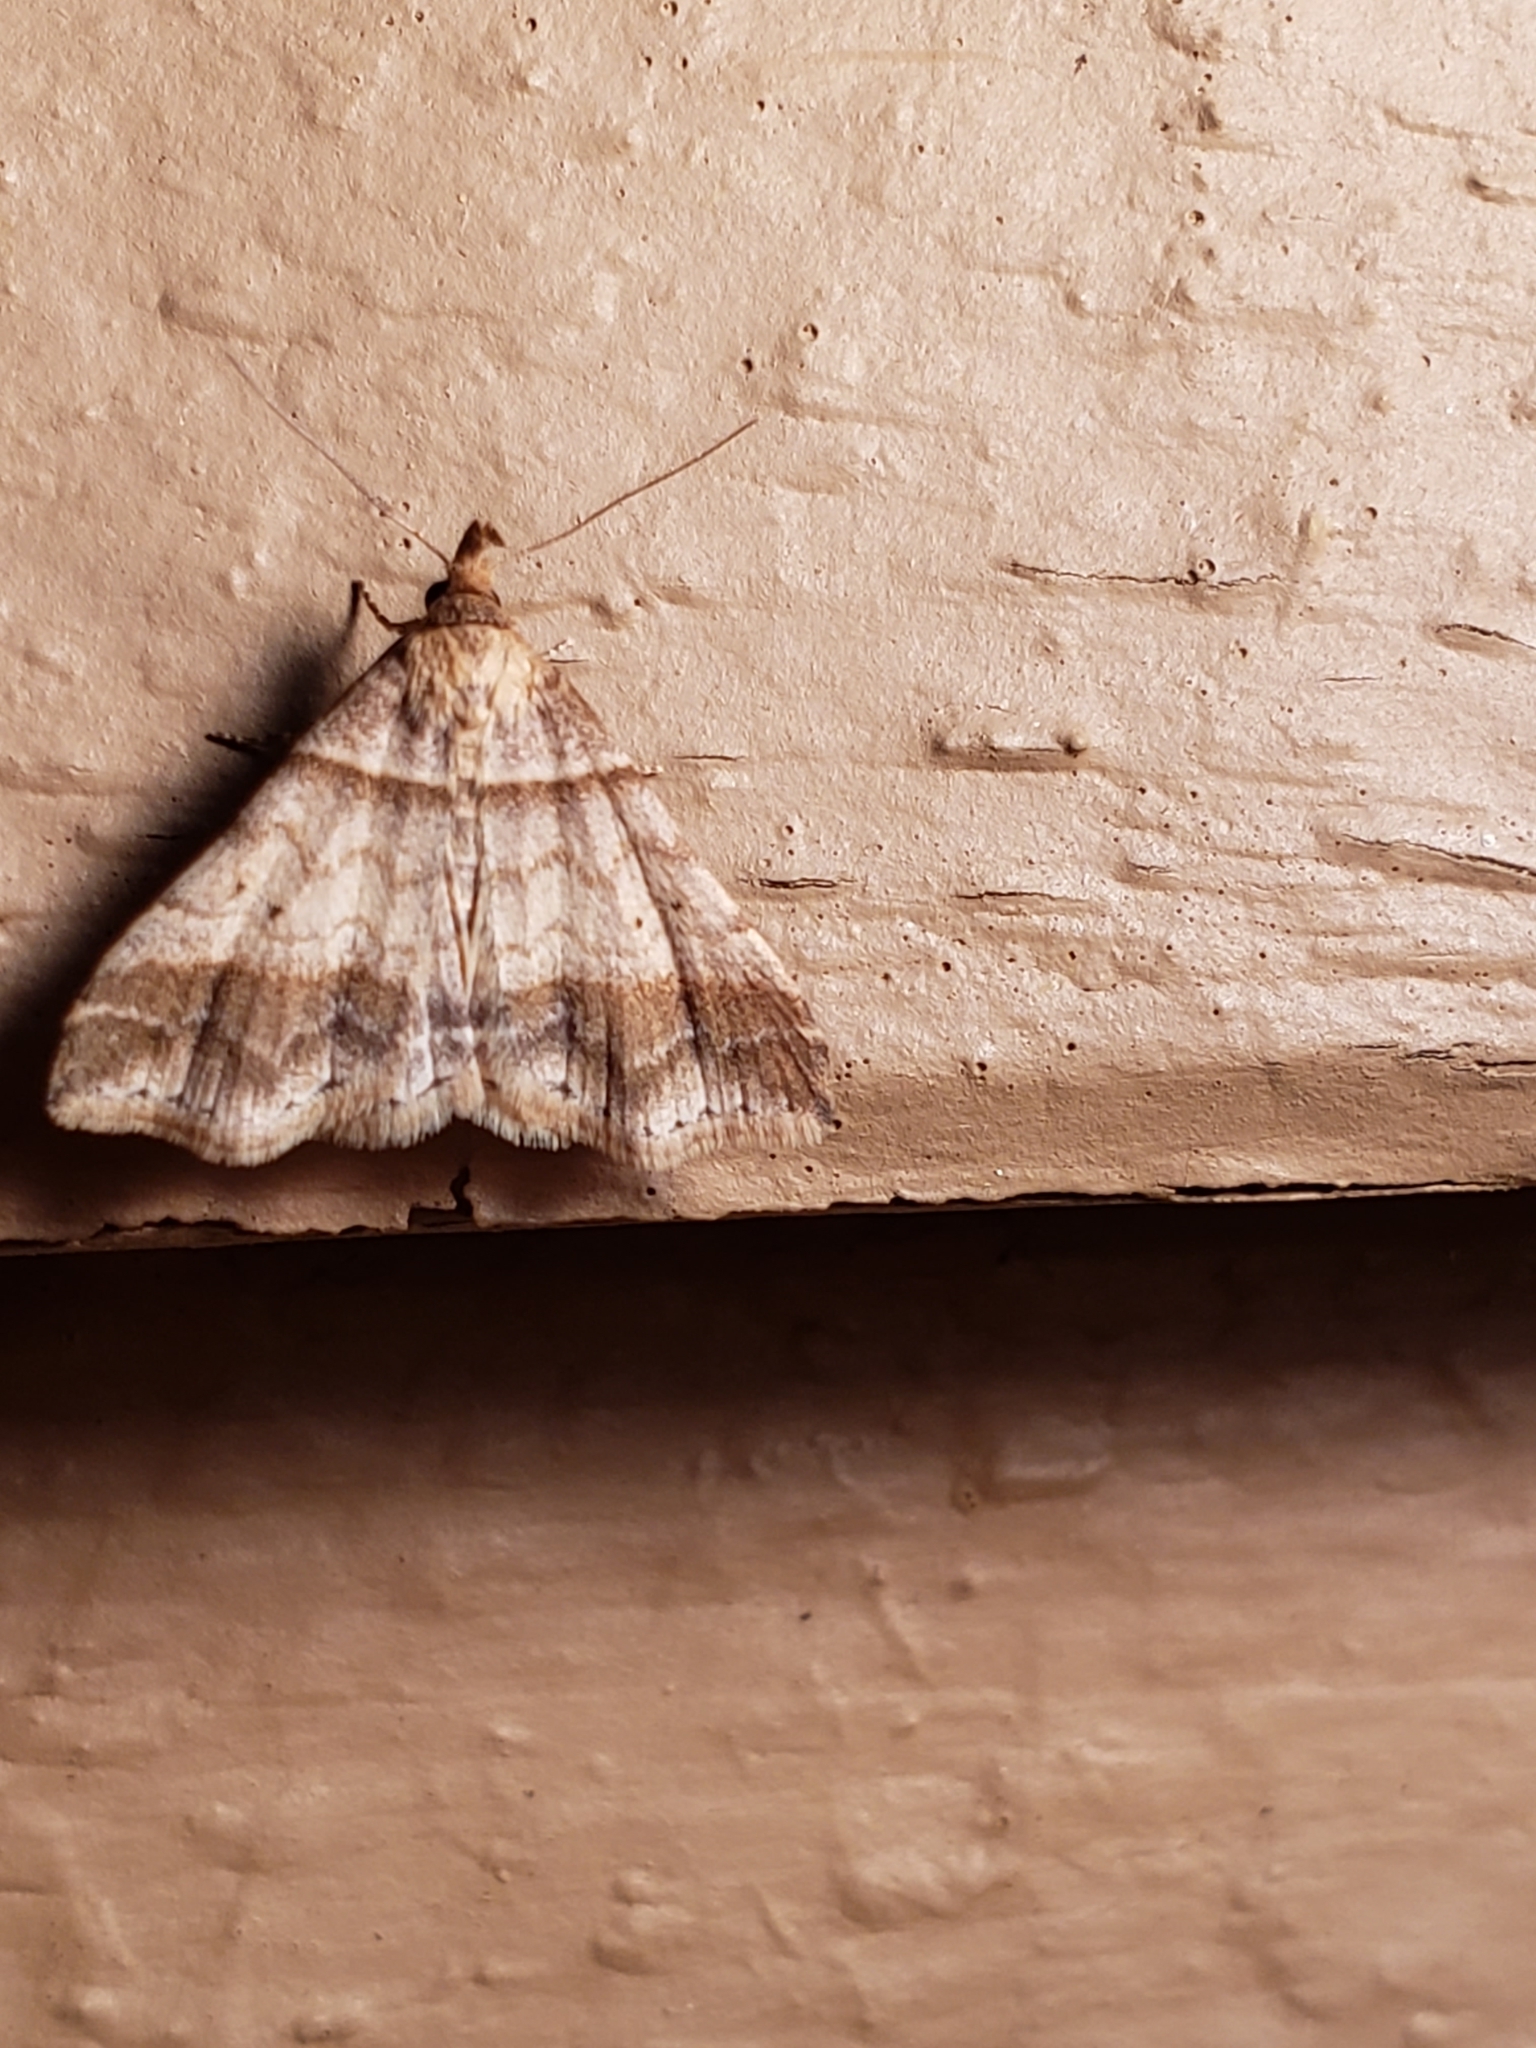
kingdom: Animalia
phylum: Arthropoda
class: Insecta
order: Lepidoptera
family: Erebidae
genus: Phaeolita
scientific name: Phaeolita pyramusalis
